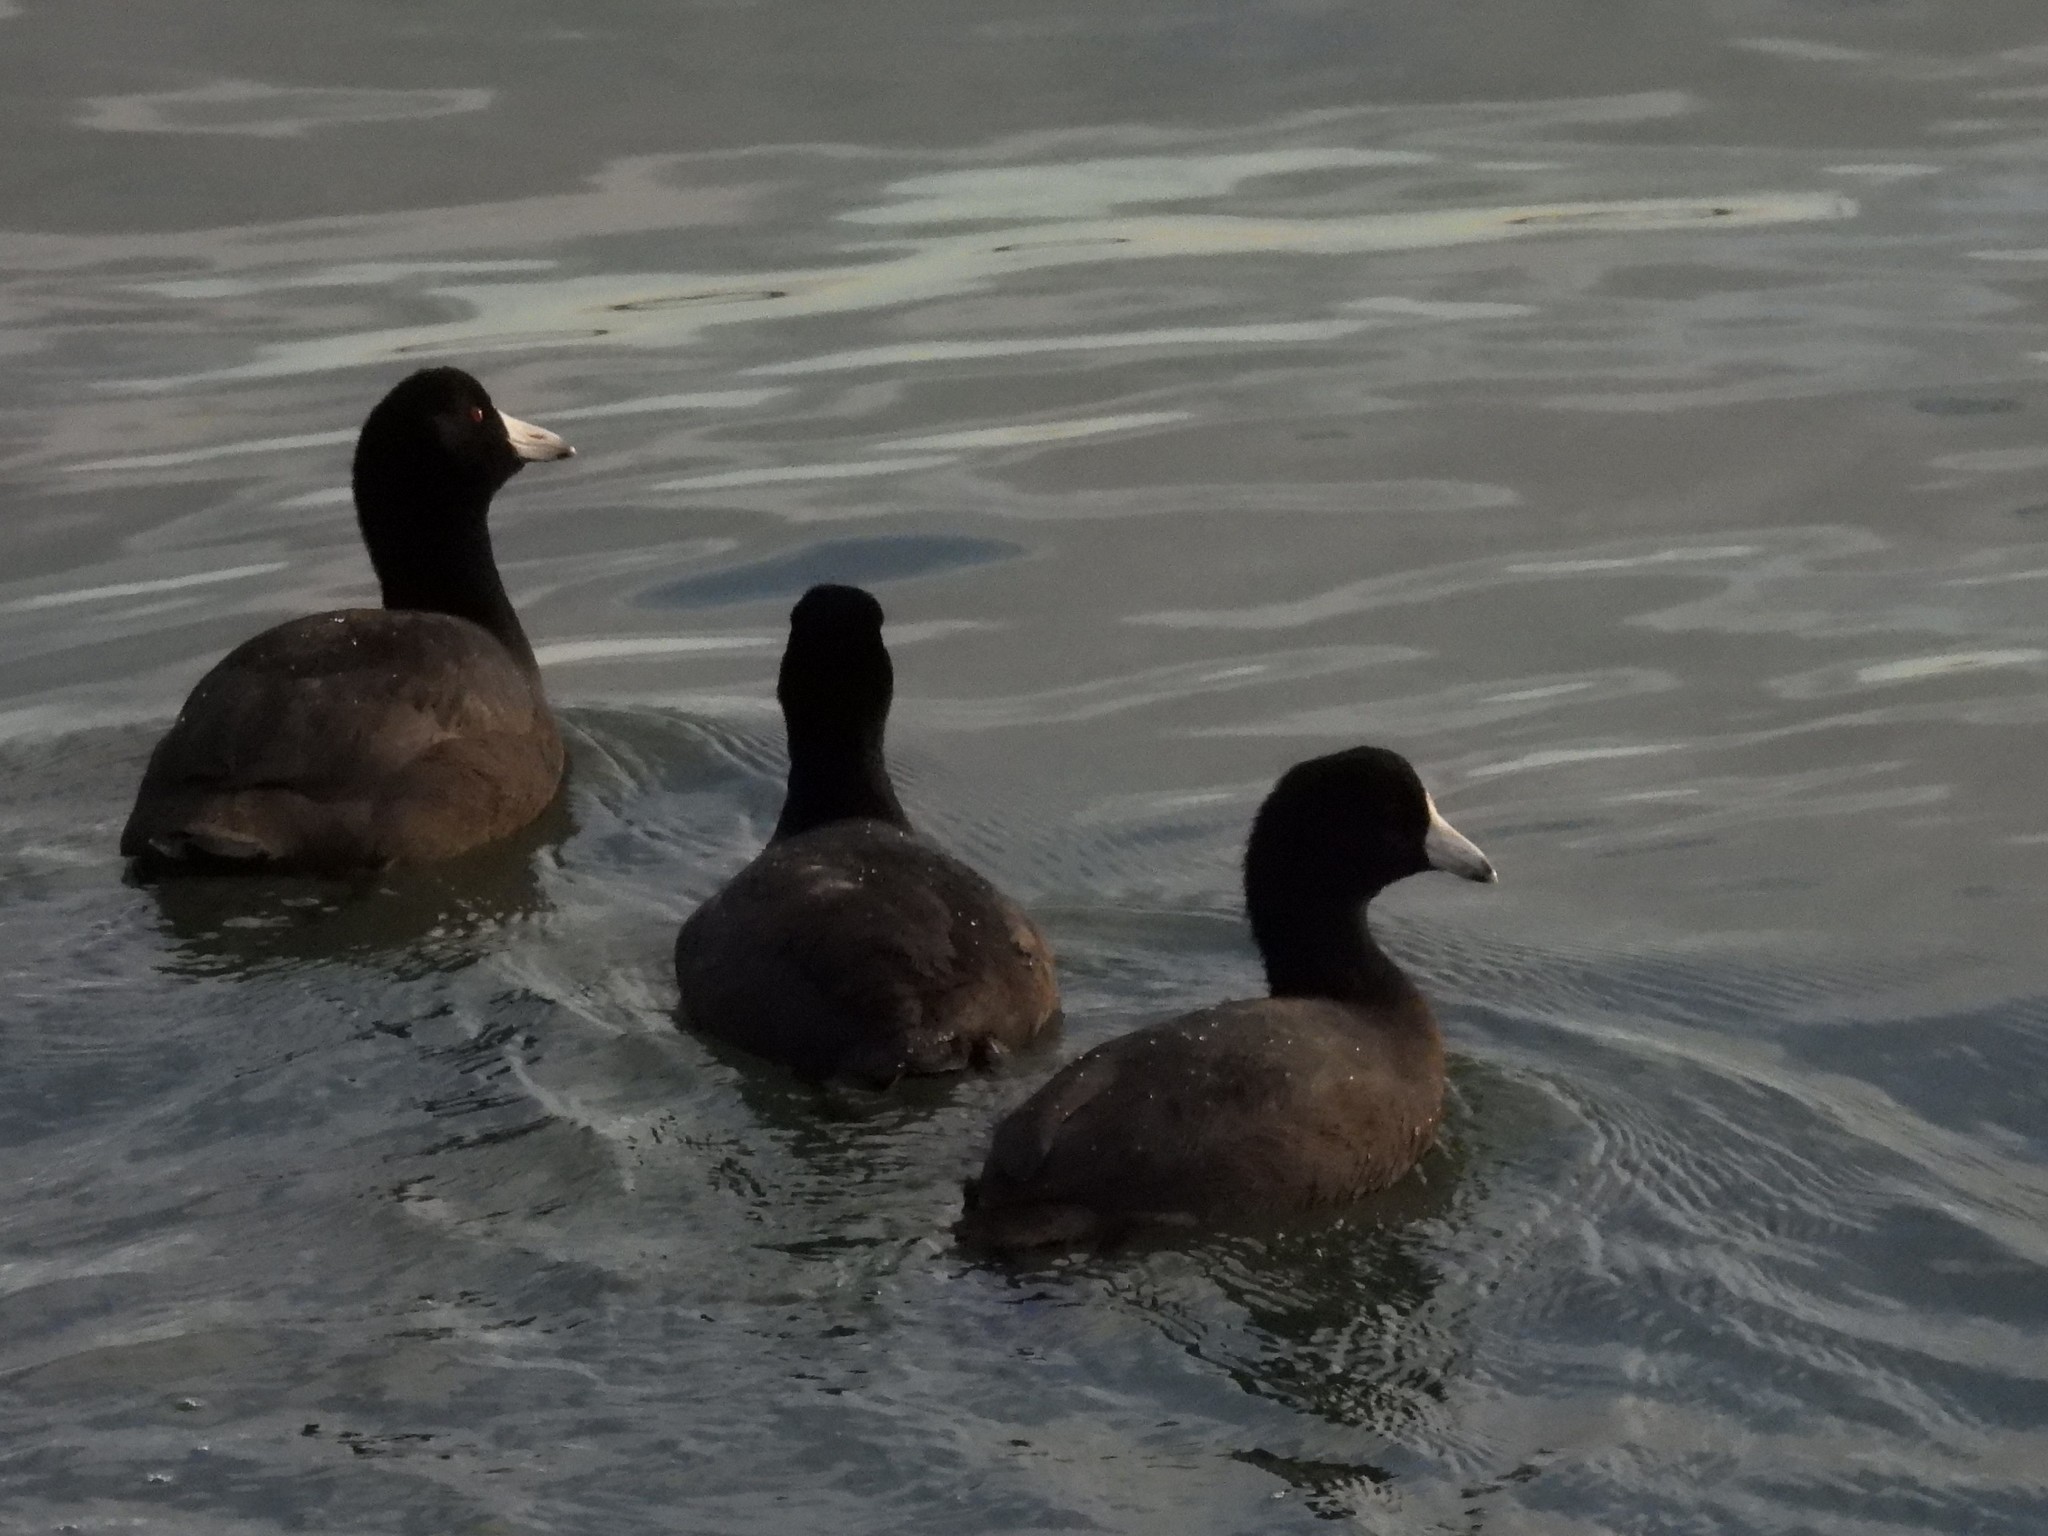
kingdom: Animalia
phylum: Chordata
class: Aves
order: Gruiformes
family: Rallidae
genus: Fulica
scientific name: Fulica americana
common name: American coot
